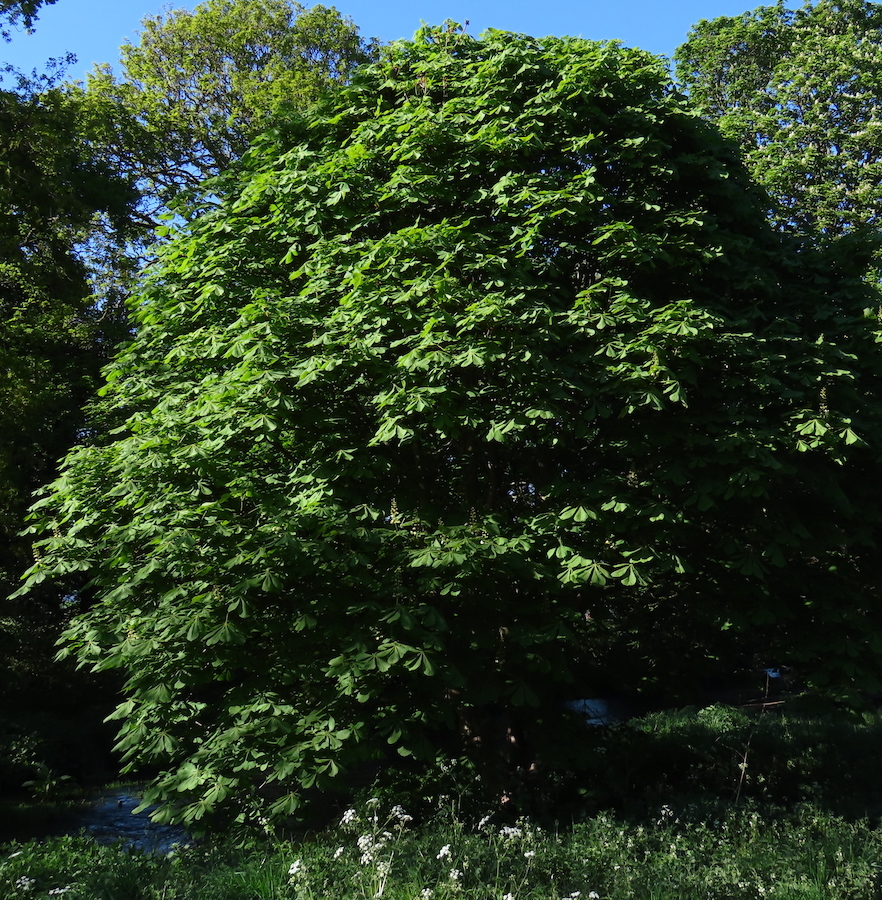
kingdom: Plantae
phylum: Tracheophyta
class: Magnoliopsida
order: Sapindales
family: Sapindaceae
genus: Aesculus
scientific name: Aesculus hippocastanum
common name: Horse-chestnut
